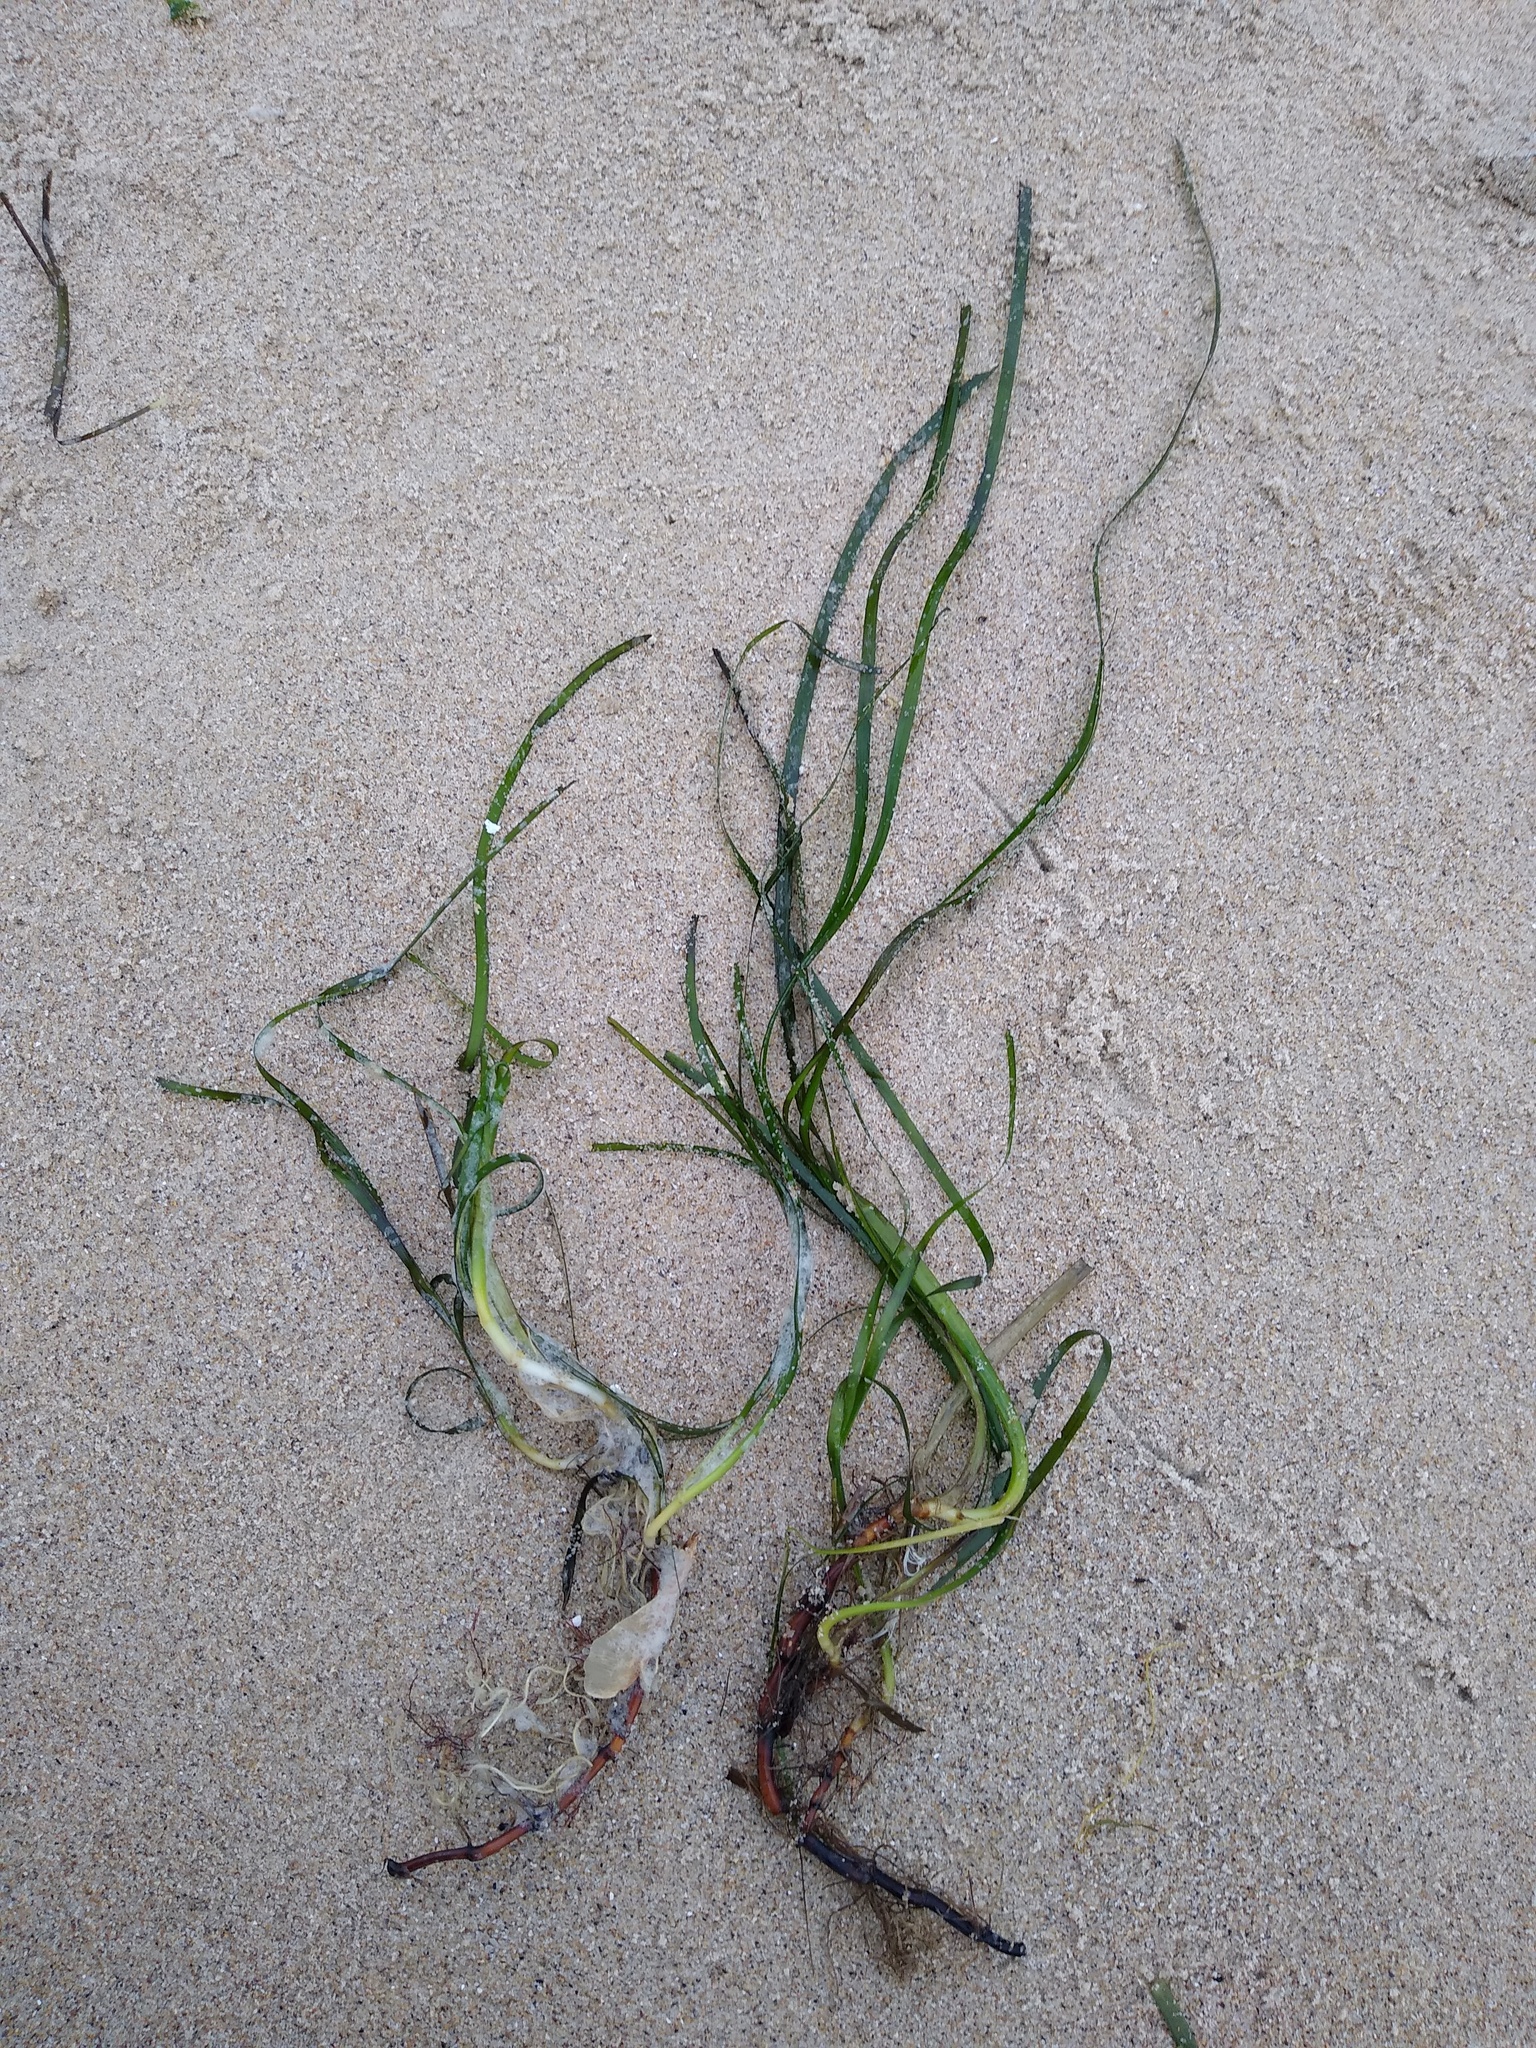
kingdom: Plantae
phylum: Tracheophyta
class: Liliopsida
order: Alismatales
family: Zosteraceae
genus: Zostera
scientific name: Zostera marina
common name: Eelgrass
